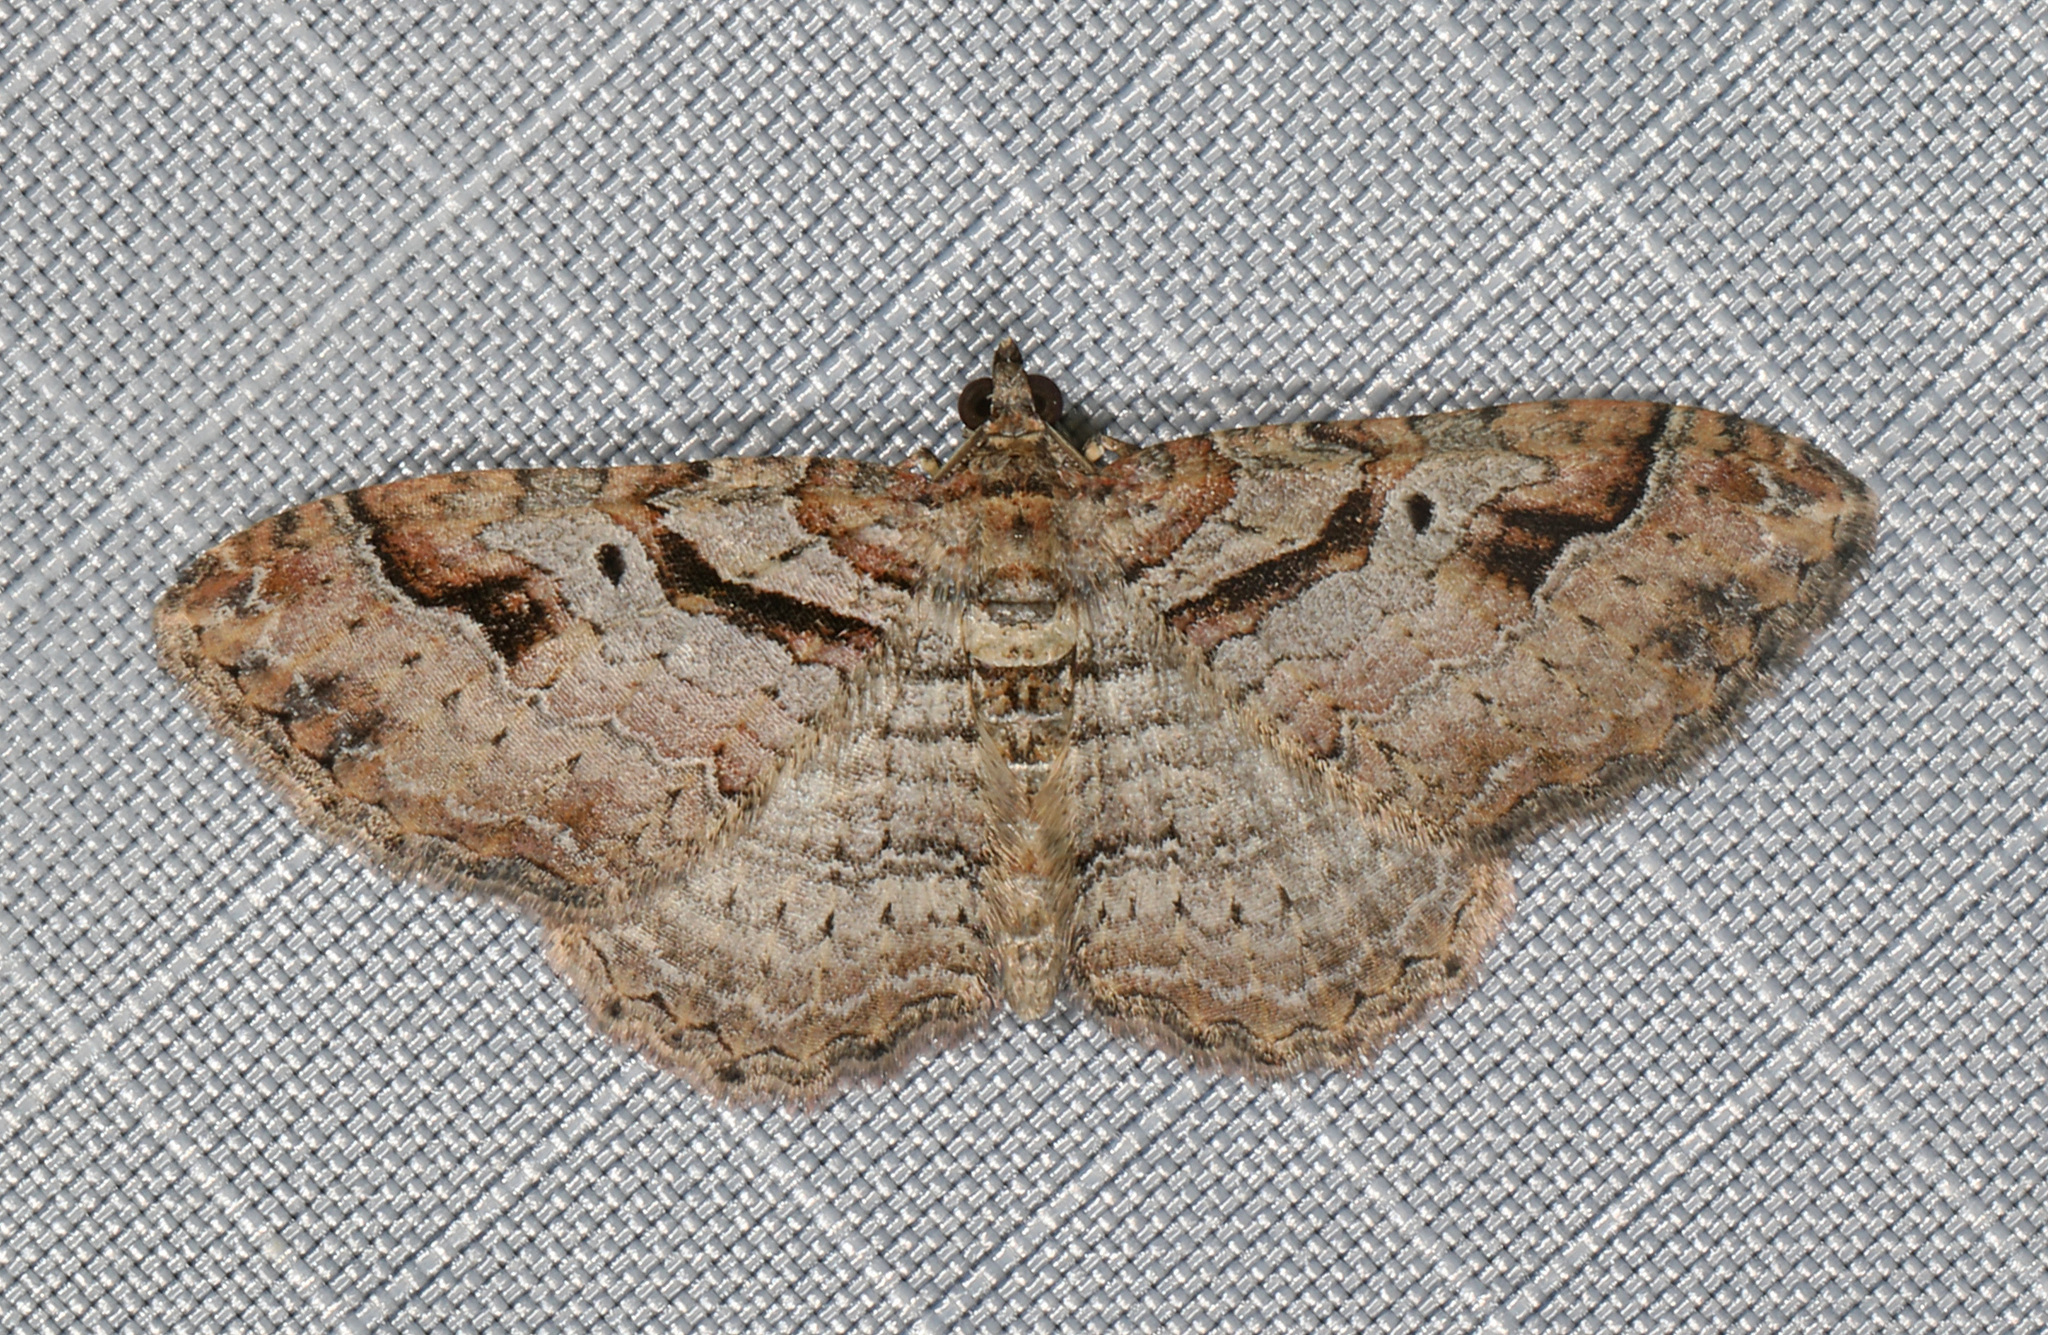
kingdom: Animalia
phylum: Arthropoda
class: Insecta
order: Lepidoptera
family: Geometridae
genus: Costaconvexa
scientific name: Costaconvexa centrostrigaria
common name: Bent-line carpet
